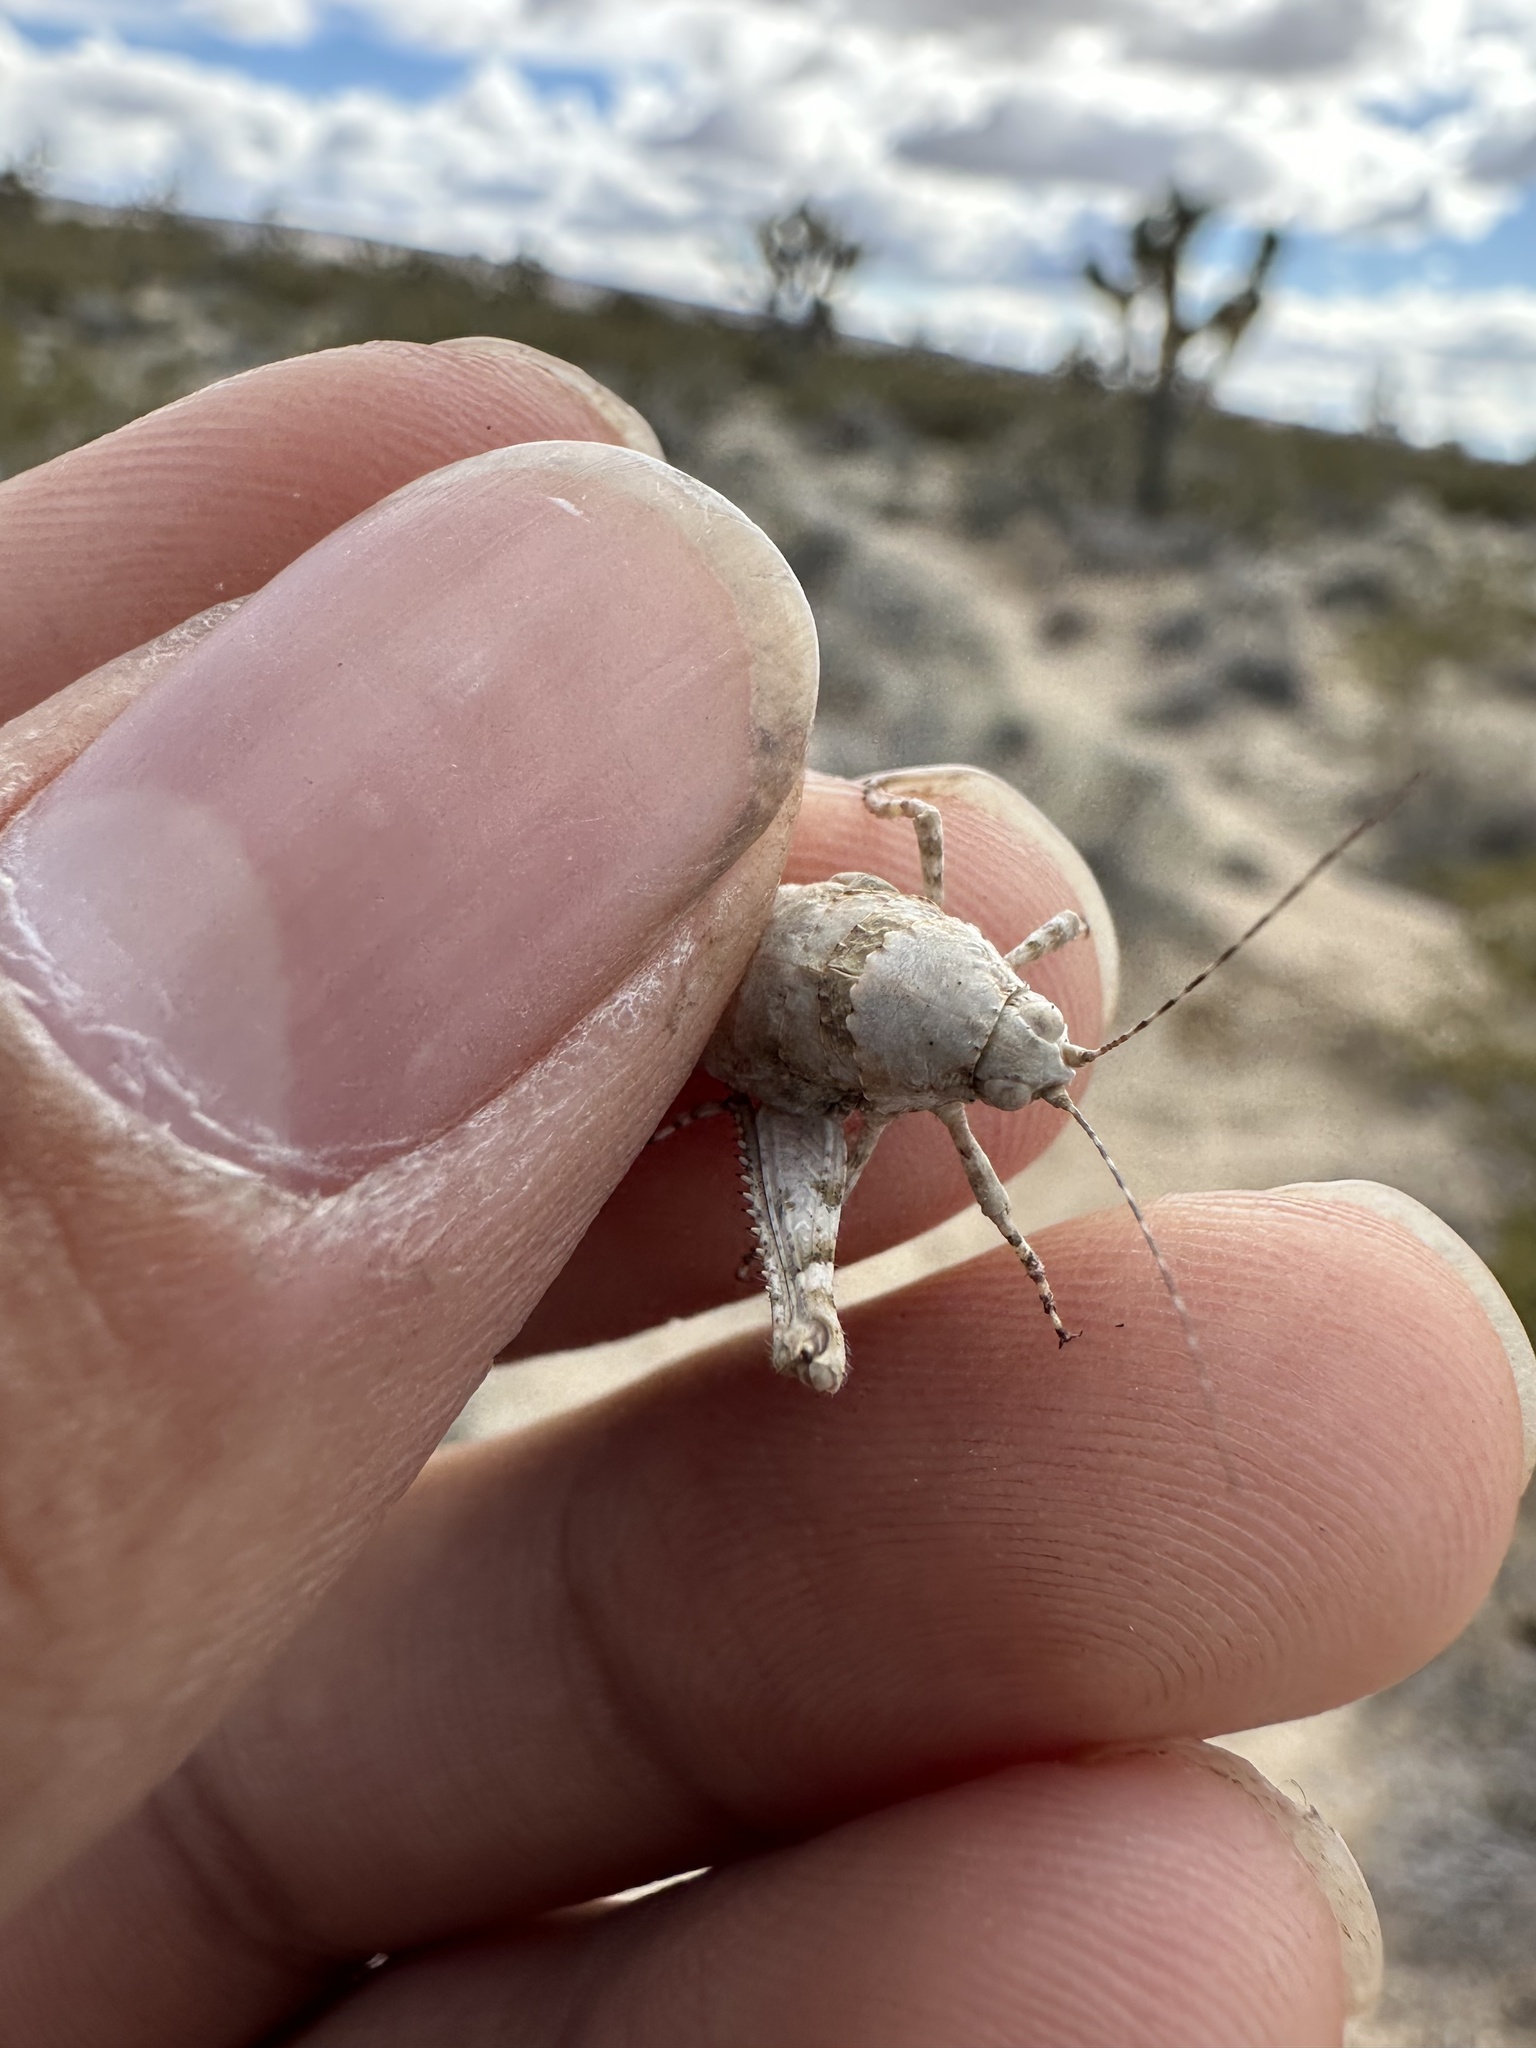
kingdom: Animalia
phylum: Arthropoda
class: Insecta
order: Orthoptera
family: Tanaoceridae
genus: Tanaocerus
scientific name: Tanaocerus koebelei
